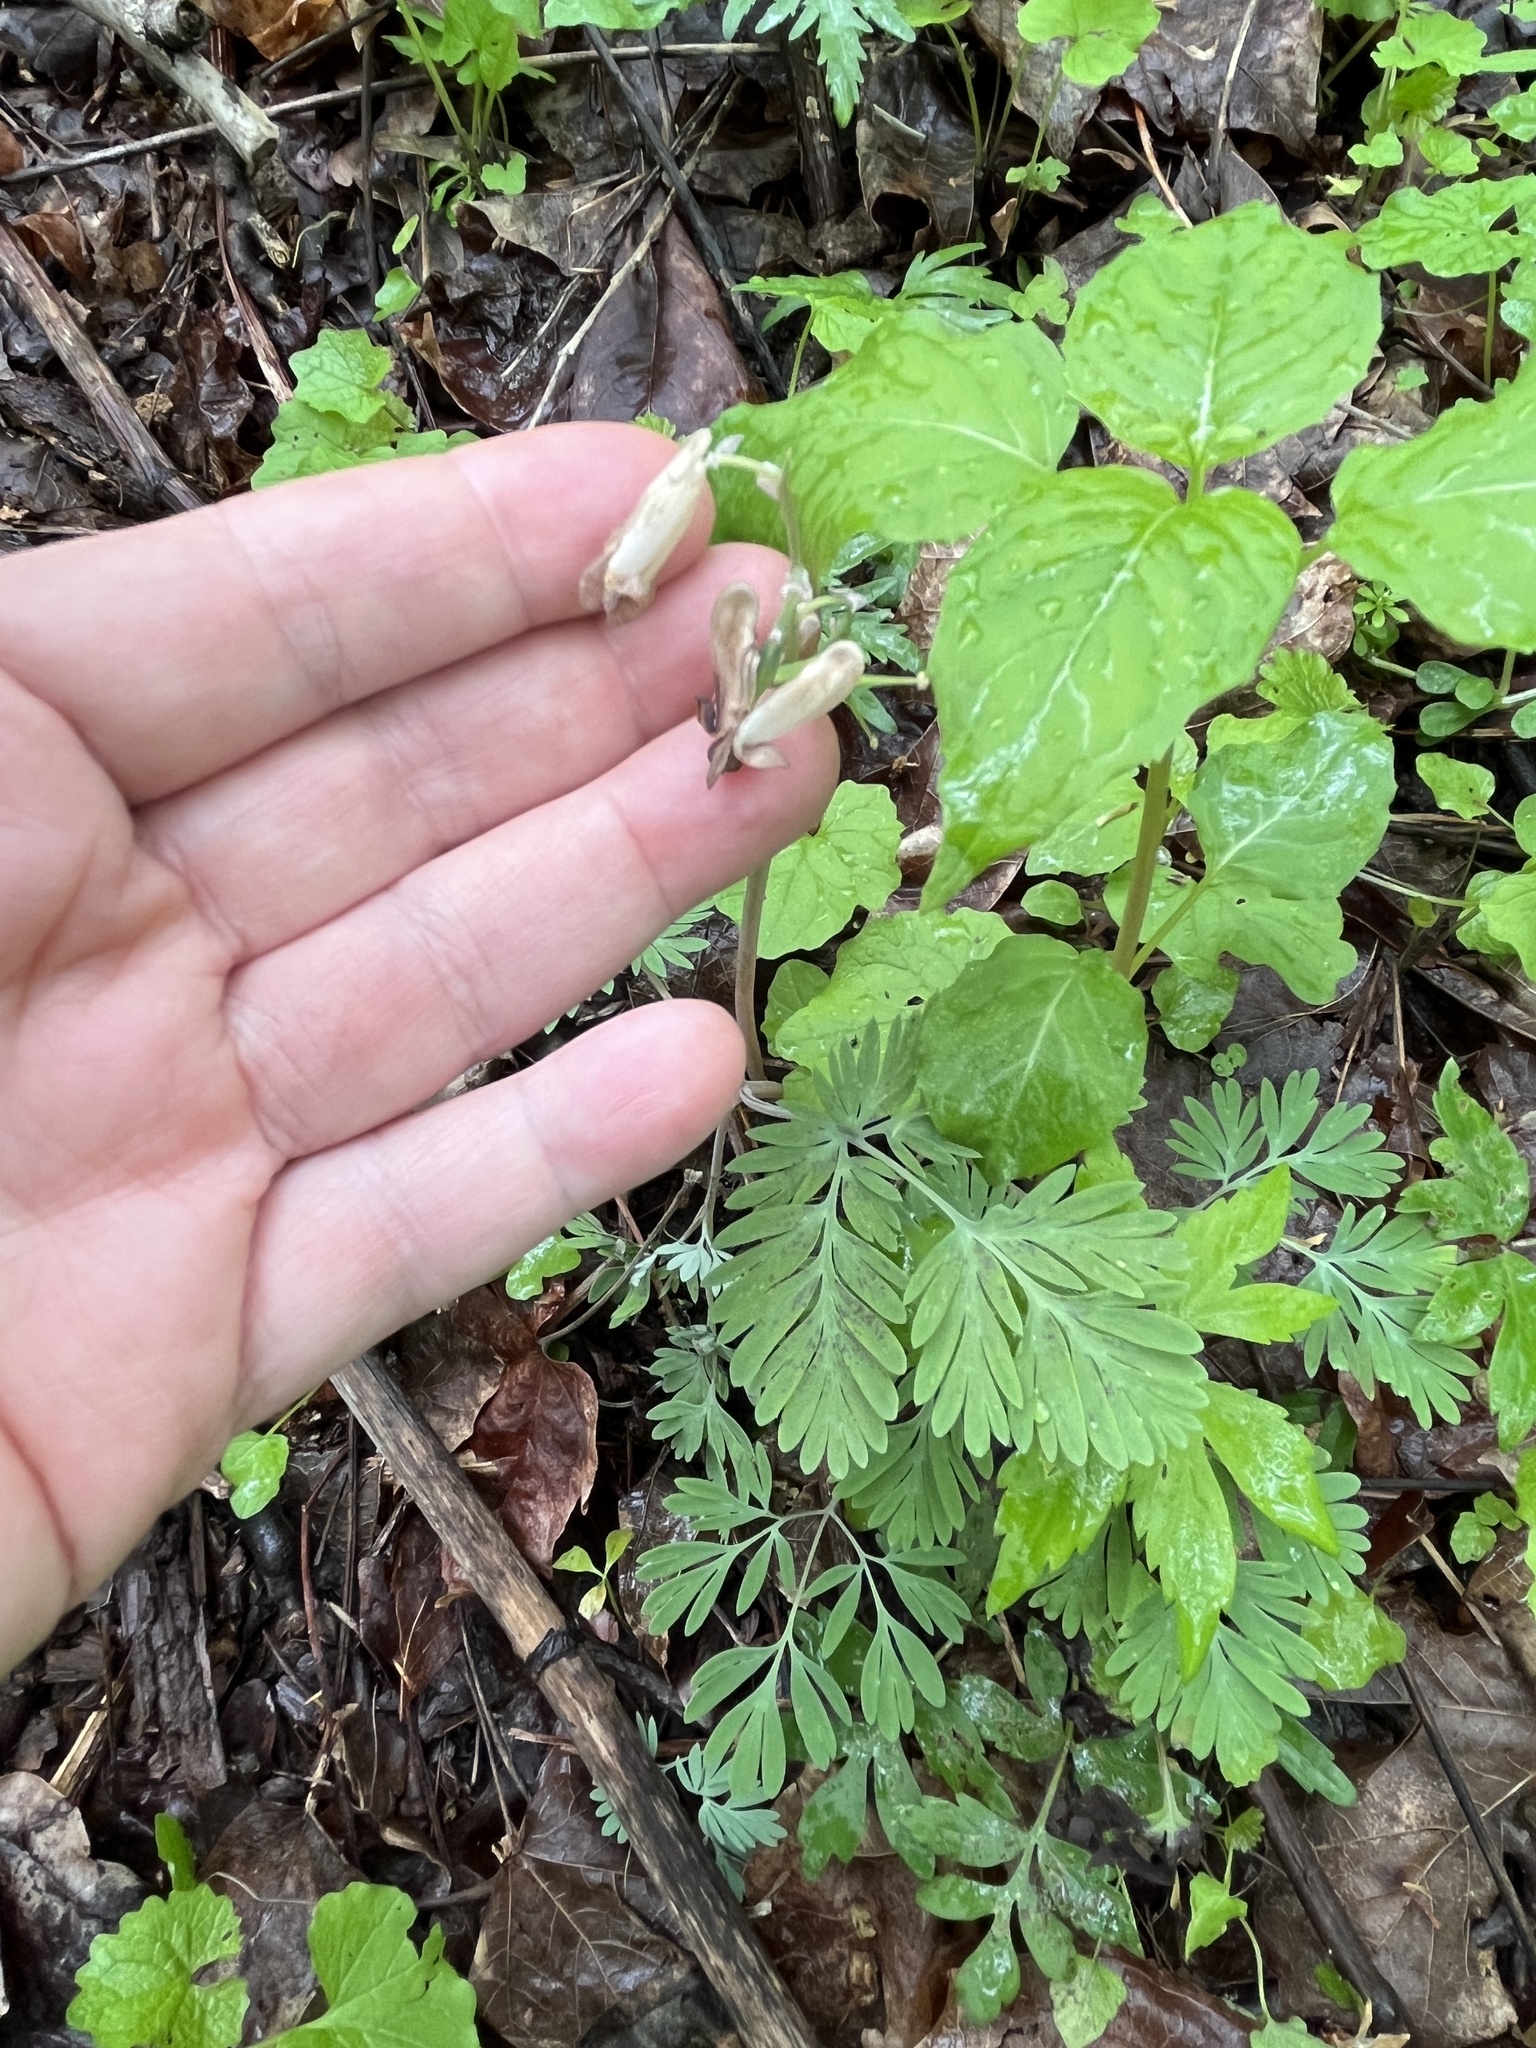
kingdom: Plantae
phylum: Tracheophyta
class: Magnoliopsida
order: Ranunculales
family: Papaveraceae
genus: Dicentra
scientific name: Dicentra canadensis
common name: Squirrel-corn
